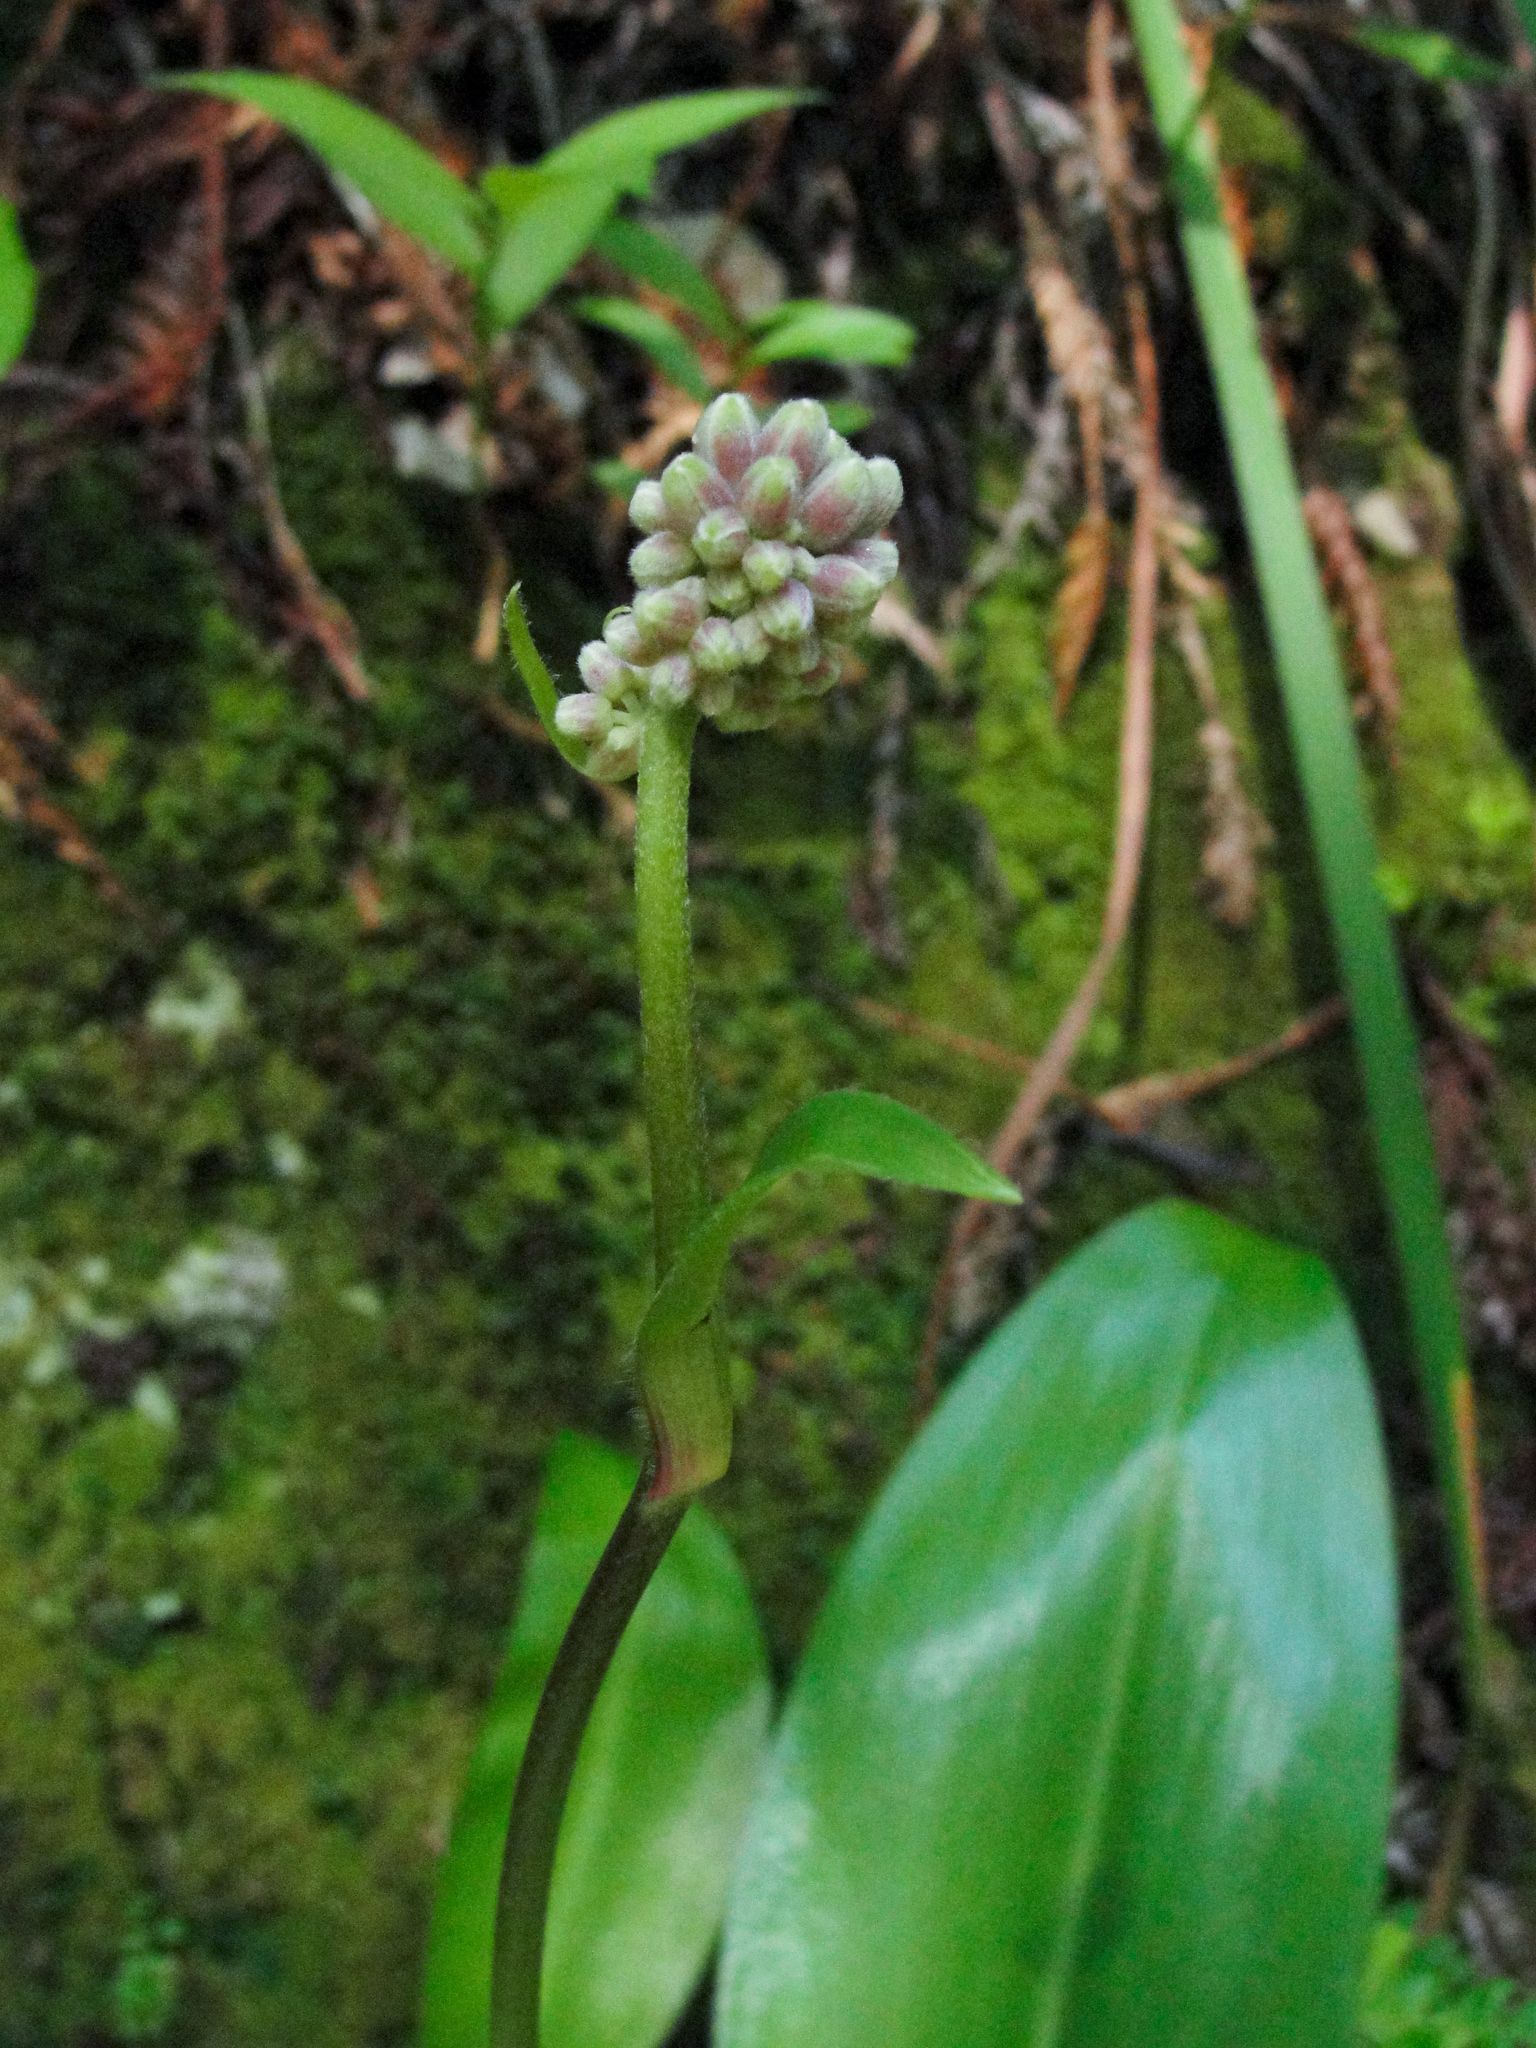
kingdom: Plantae
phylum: Tracheophyta
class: Liliopsida
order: Liliales
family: Liliaceae
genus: Clintonia
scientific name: Clintonia andrewsiana
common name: Red clintonia
